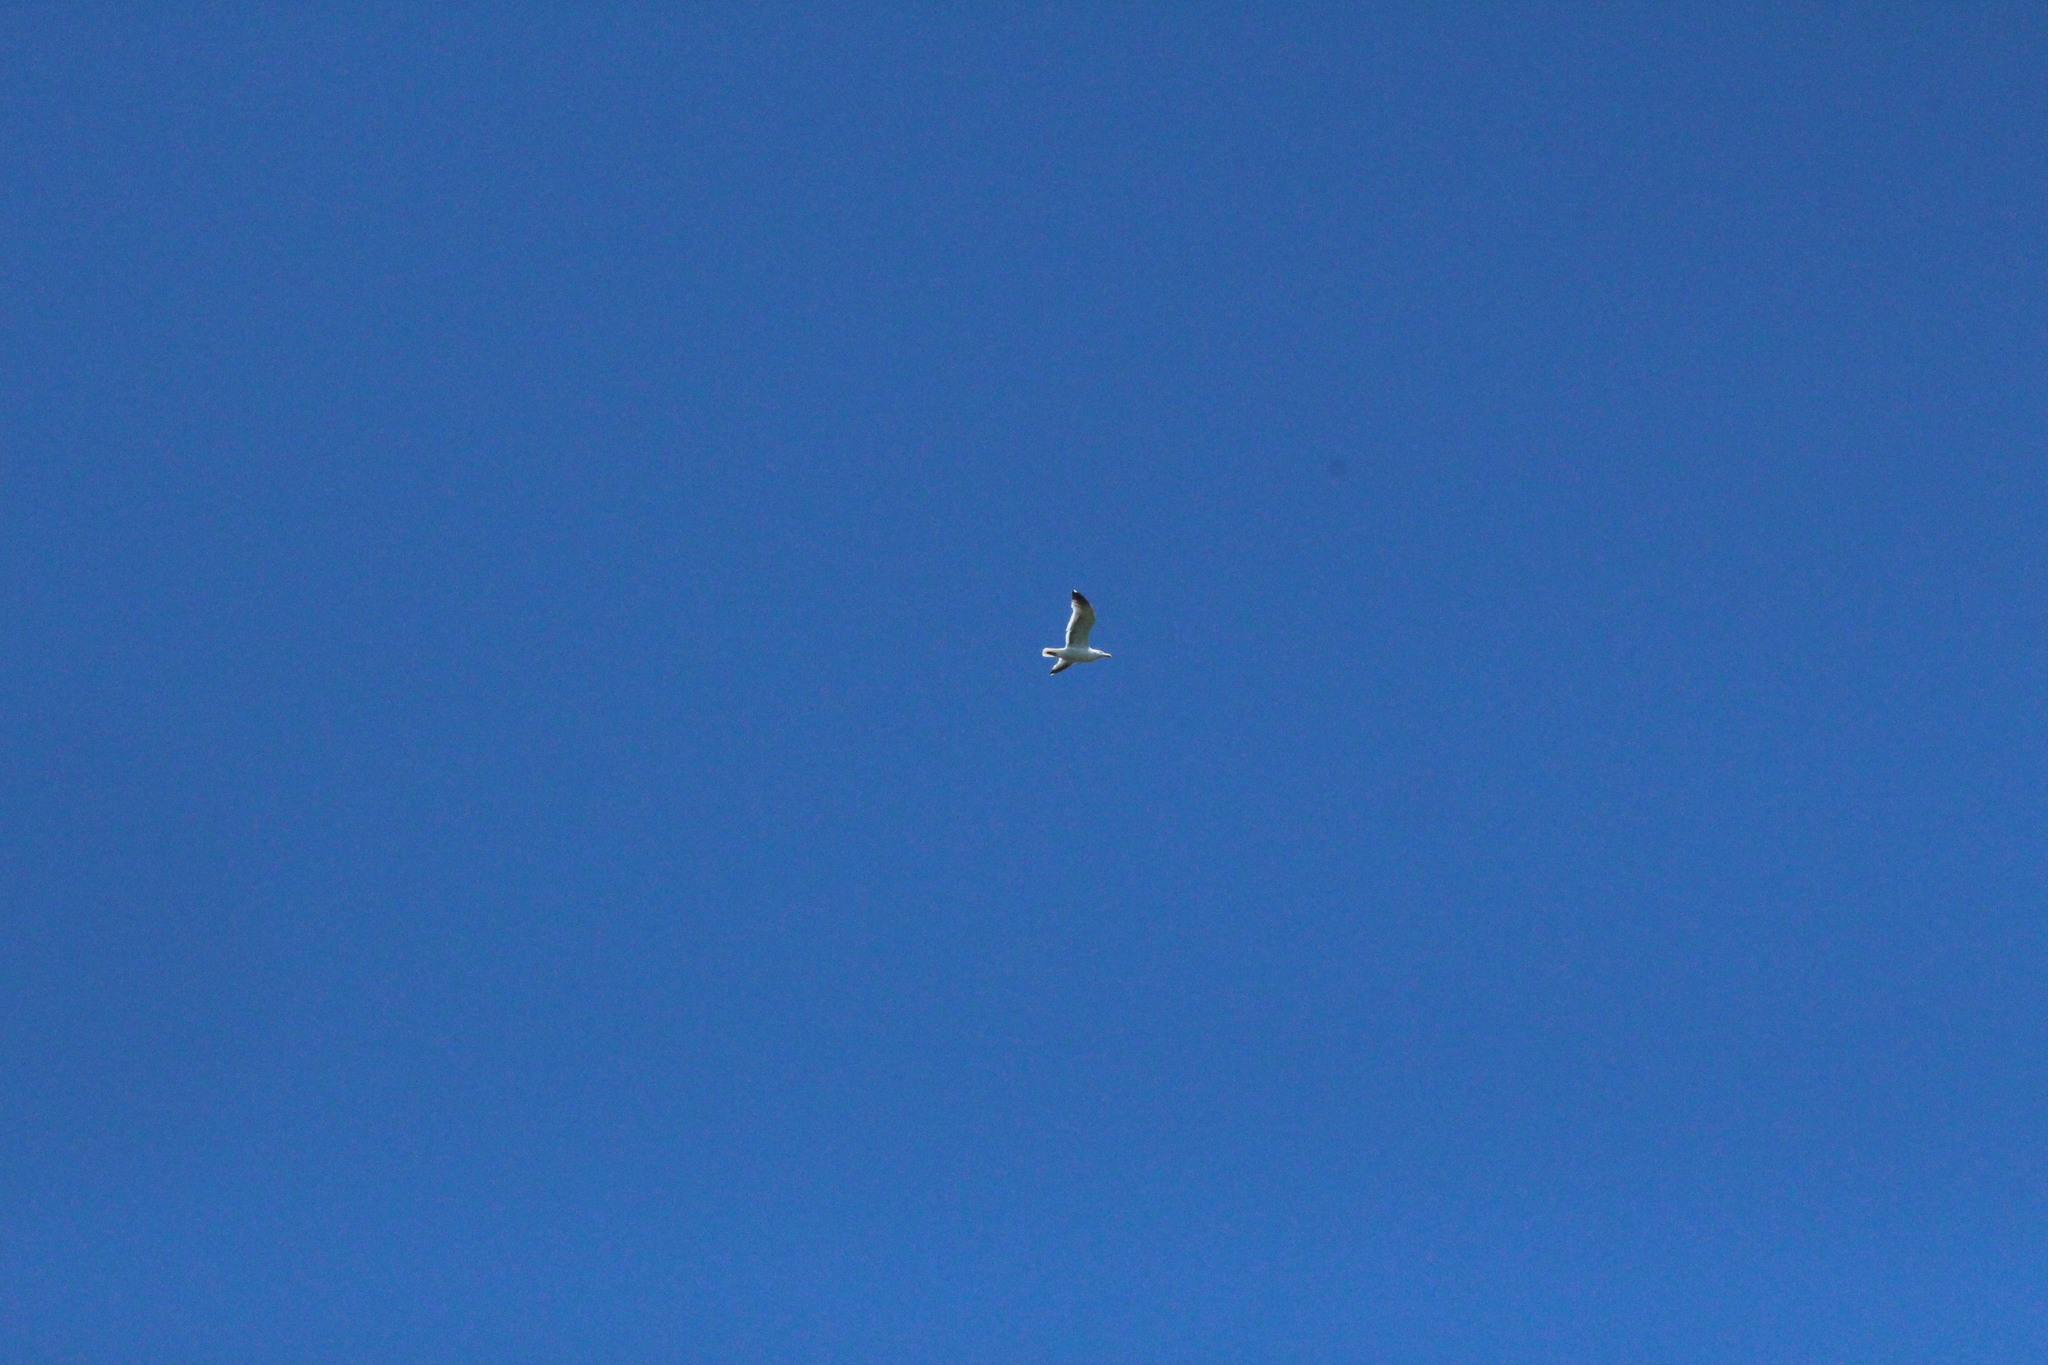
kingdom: Animalia
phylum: Chordata
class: Aves
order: Charadriiformes
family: Laridae
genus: Larus
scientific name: Larus
